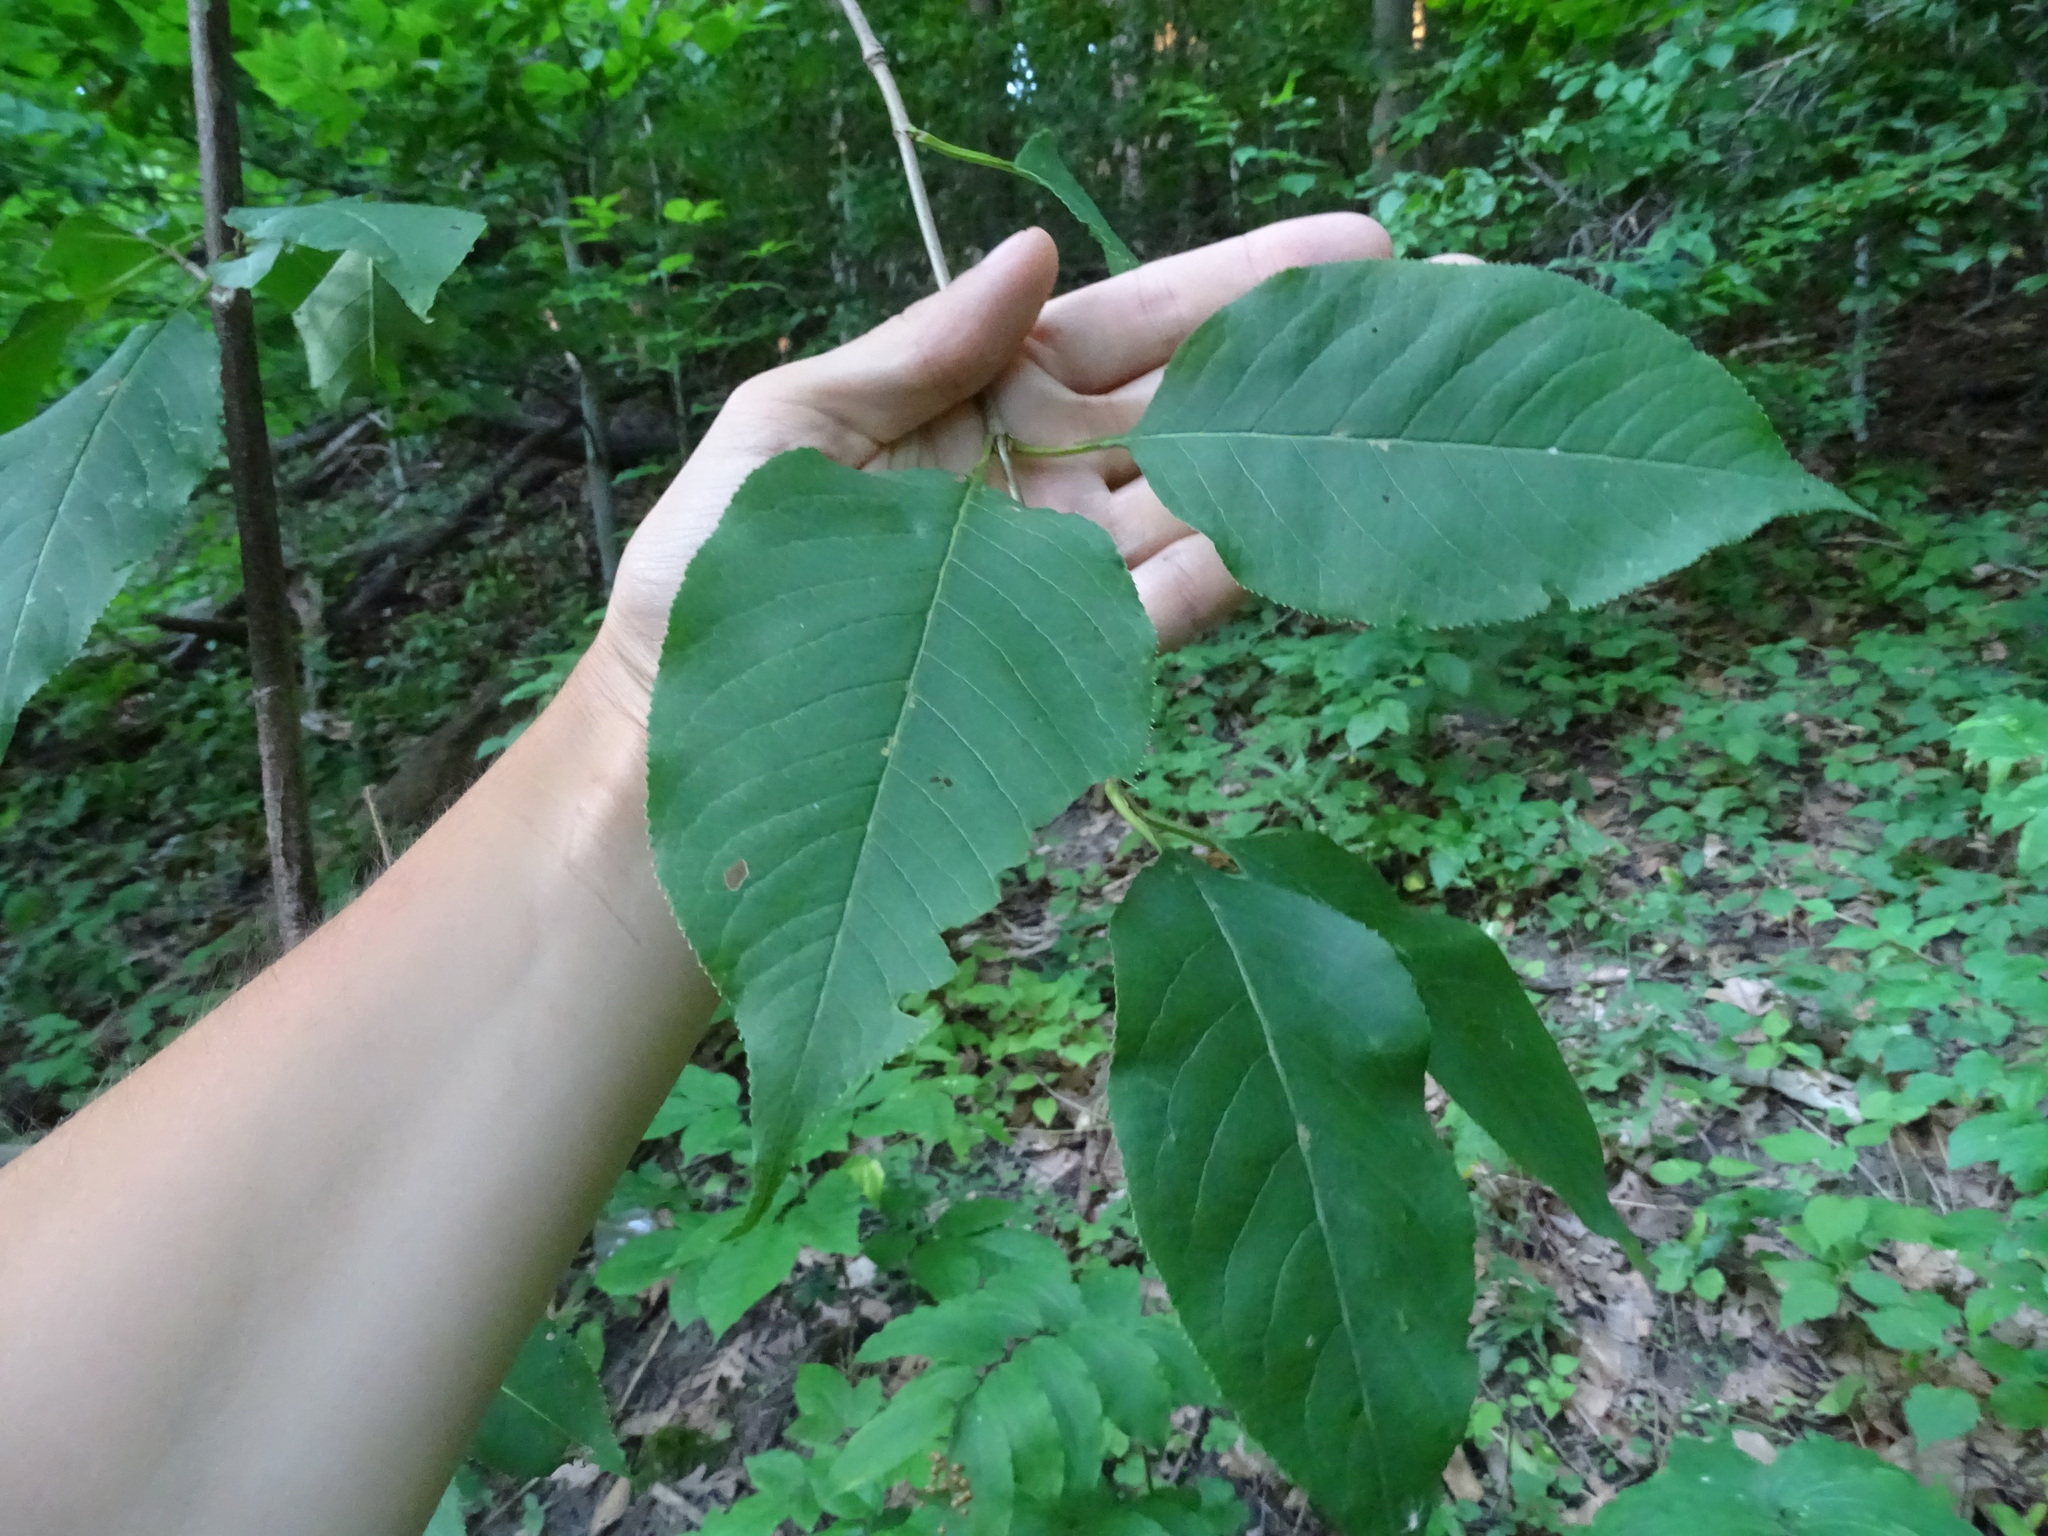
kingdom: Plantae
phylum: Tracheophyta
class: Magnoliopsida
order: Dipsacales
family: Viburnaceae
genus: Viburnum
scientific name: Viburnum lentago
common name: Black haw
